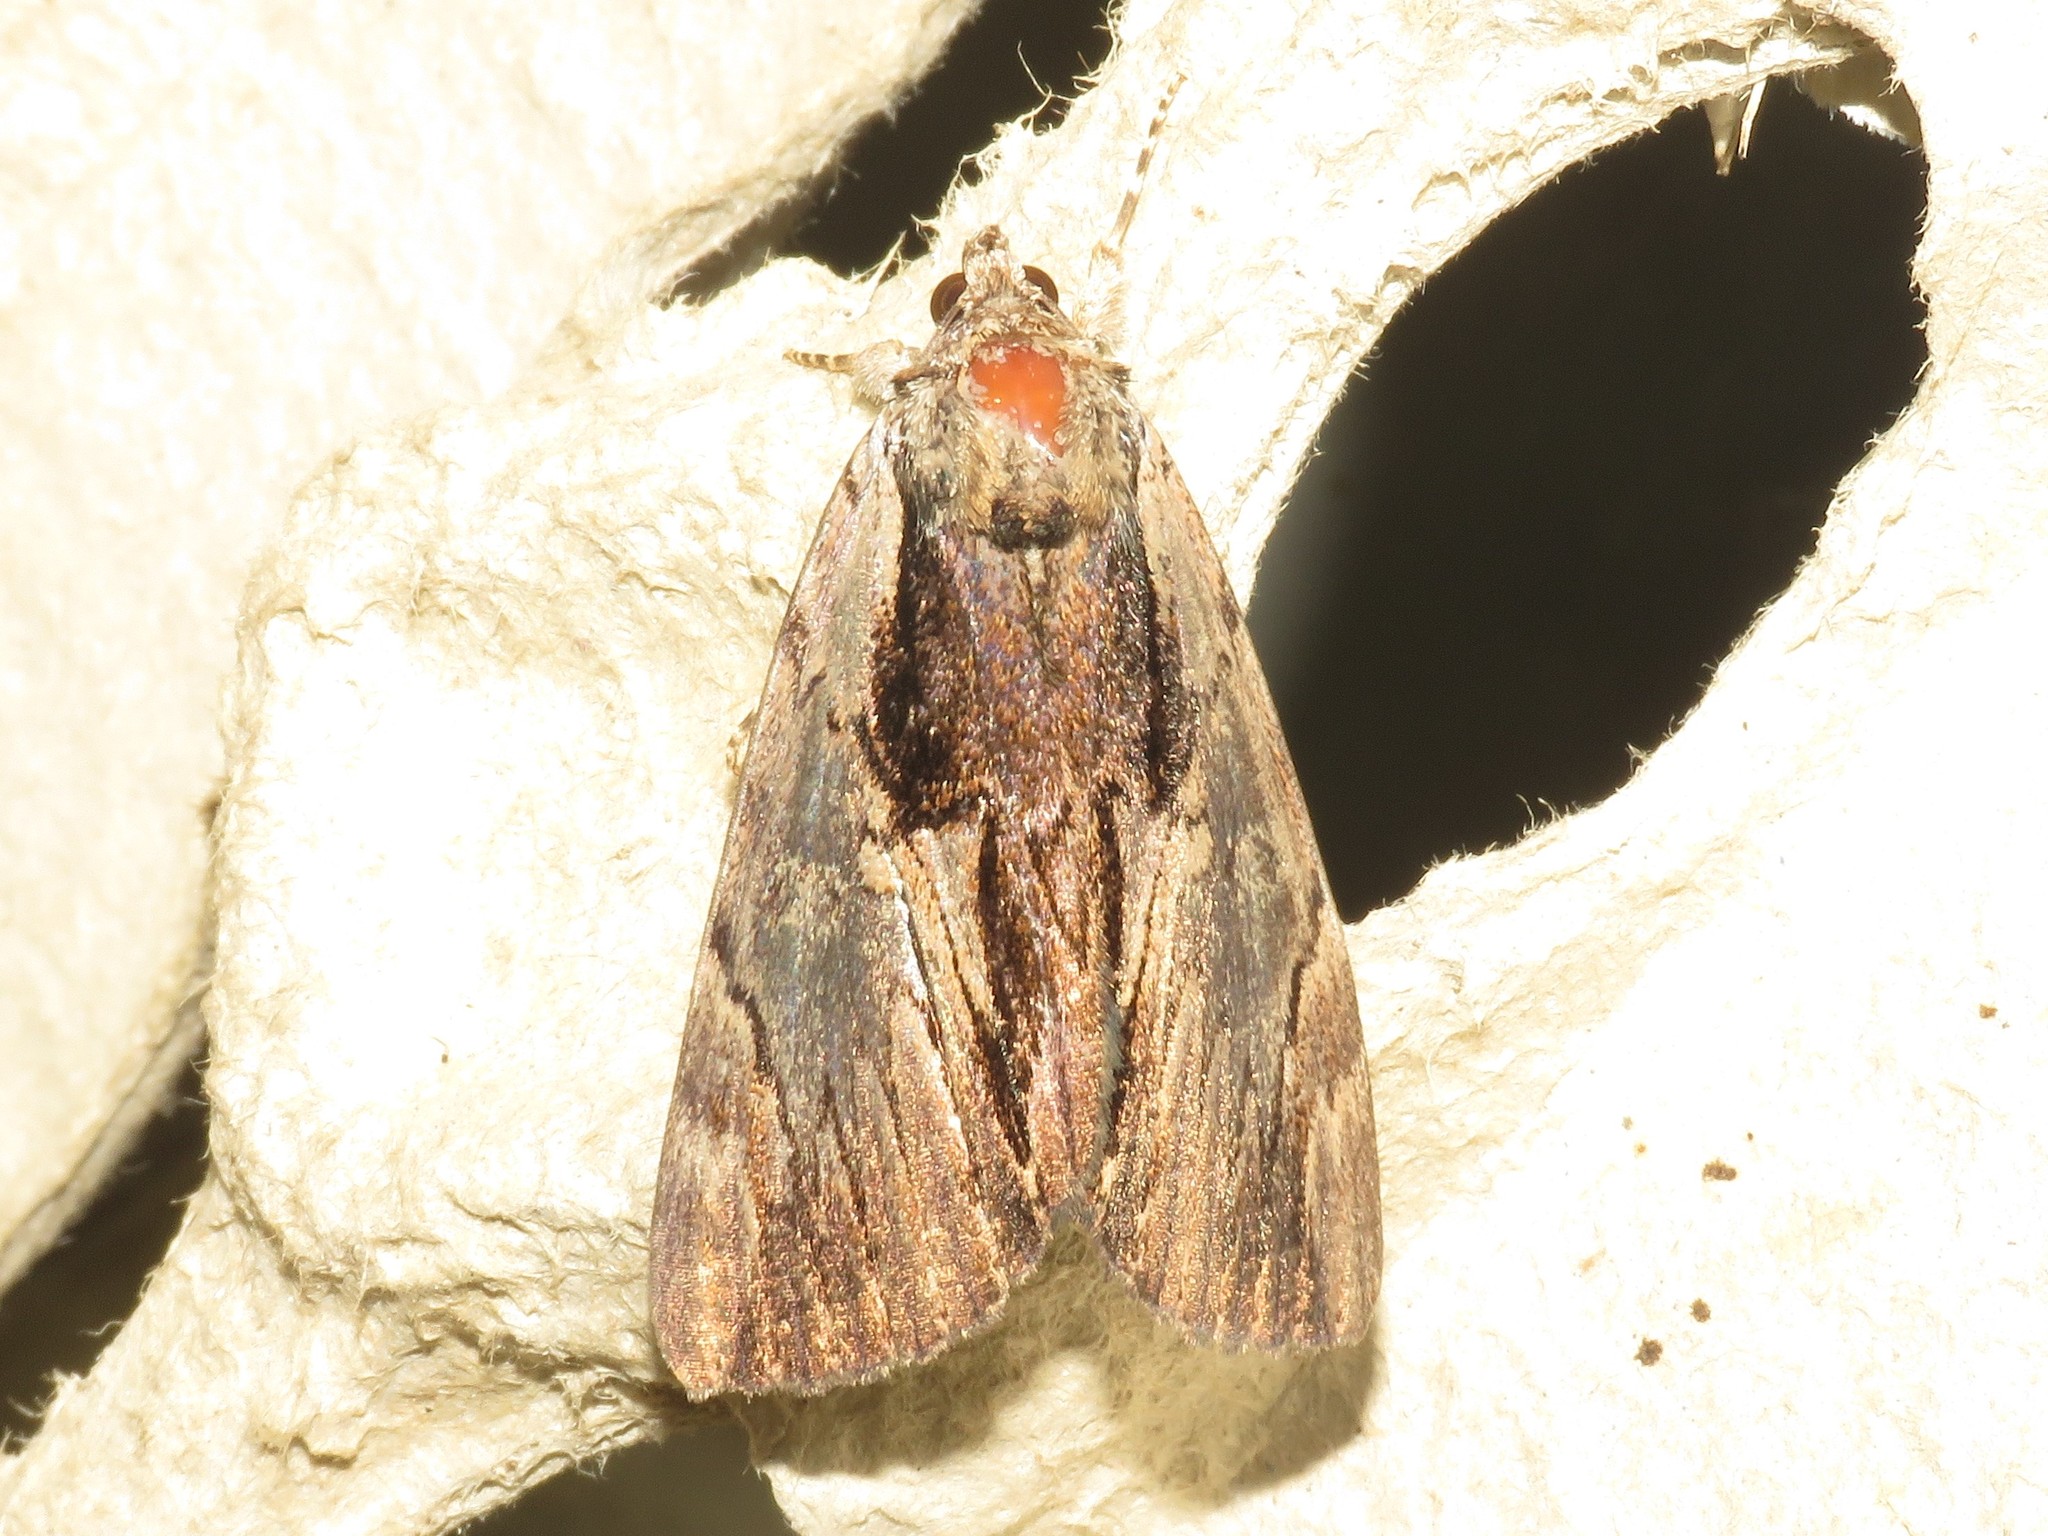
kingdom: Animalia
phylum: Arthropoda
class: Insecta
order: Lepidoptera
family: Erebidae
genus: Catocala
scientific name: Catocala ultronia
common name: Ultronia underwing
